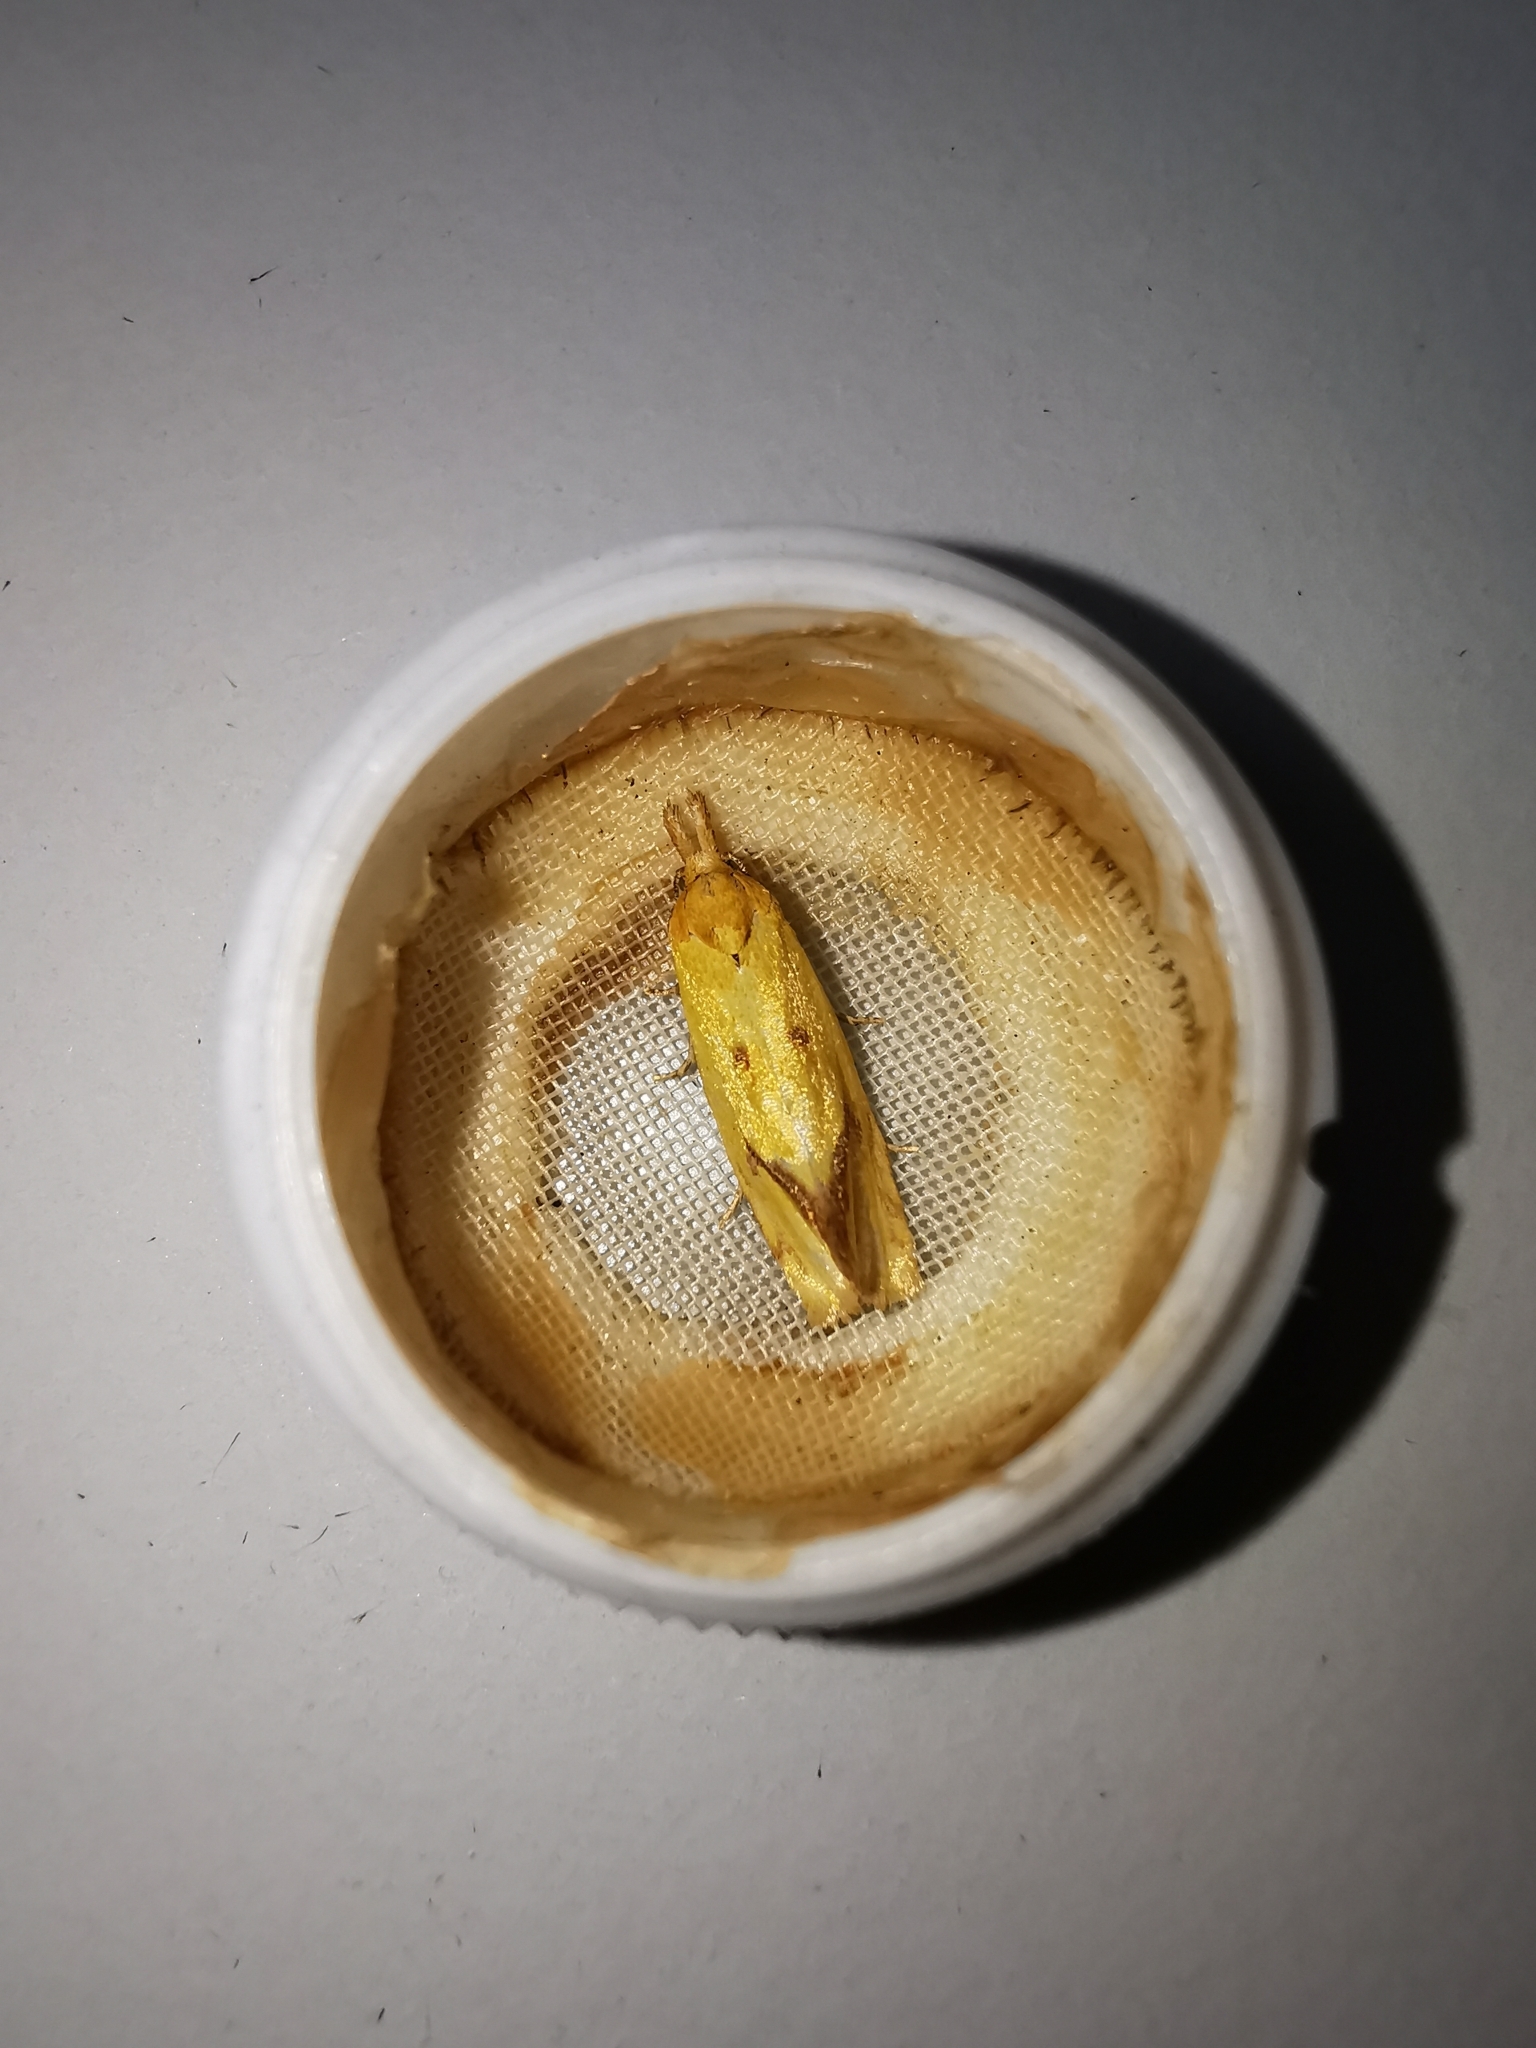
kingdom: Animalia
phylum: Arthropoda
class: Insecta
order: Lepidoptera
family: Tortricidae
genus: Agapeta
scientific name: Agapeta hamana
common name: Common yellow conch
